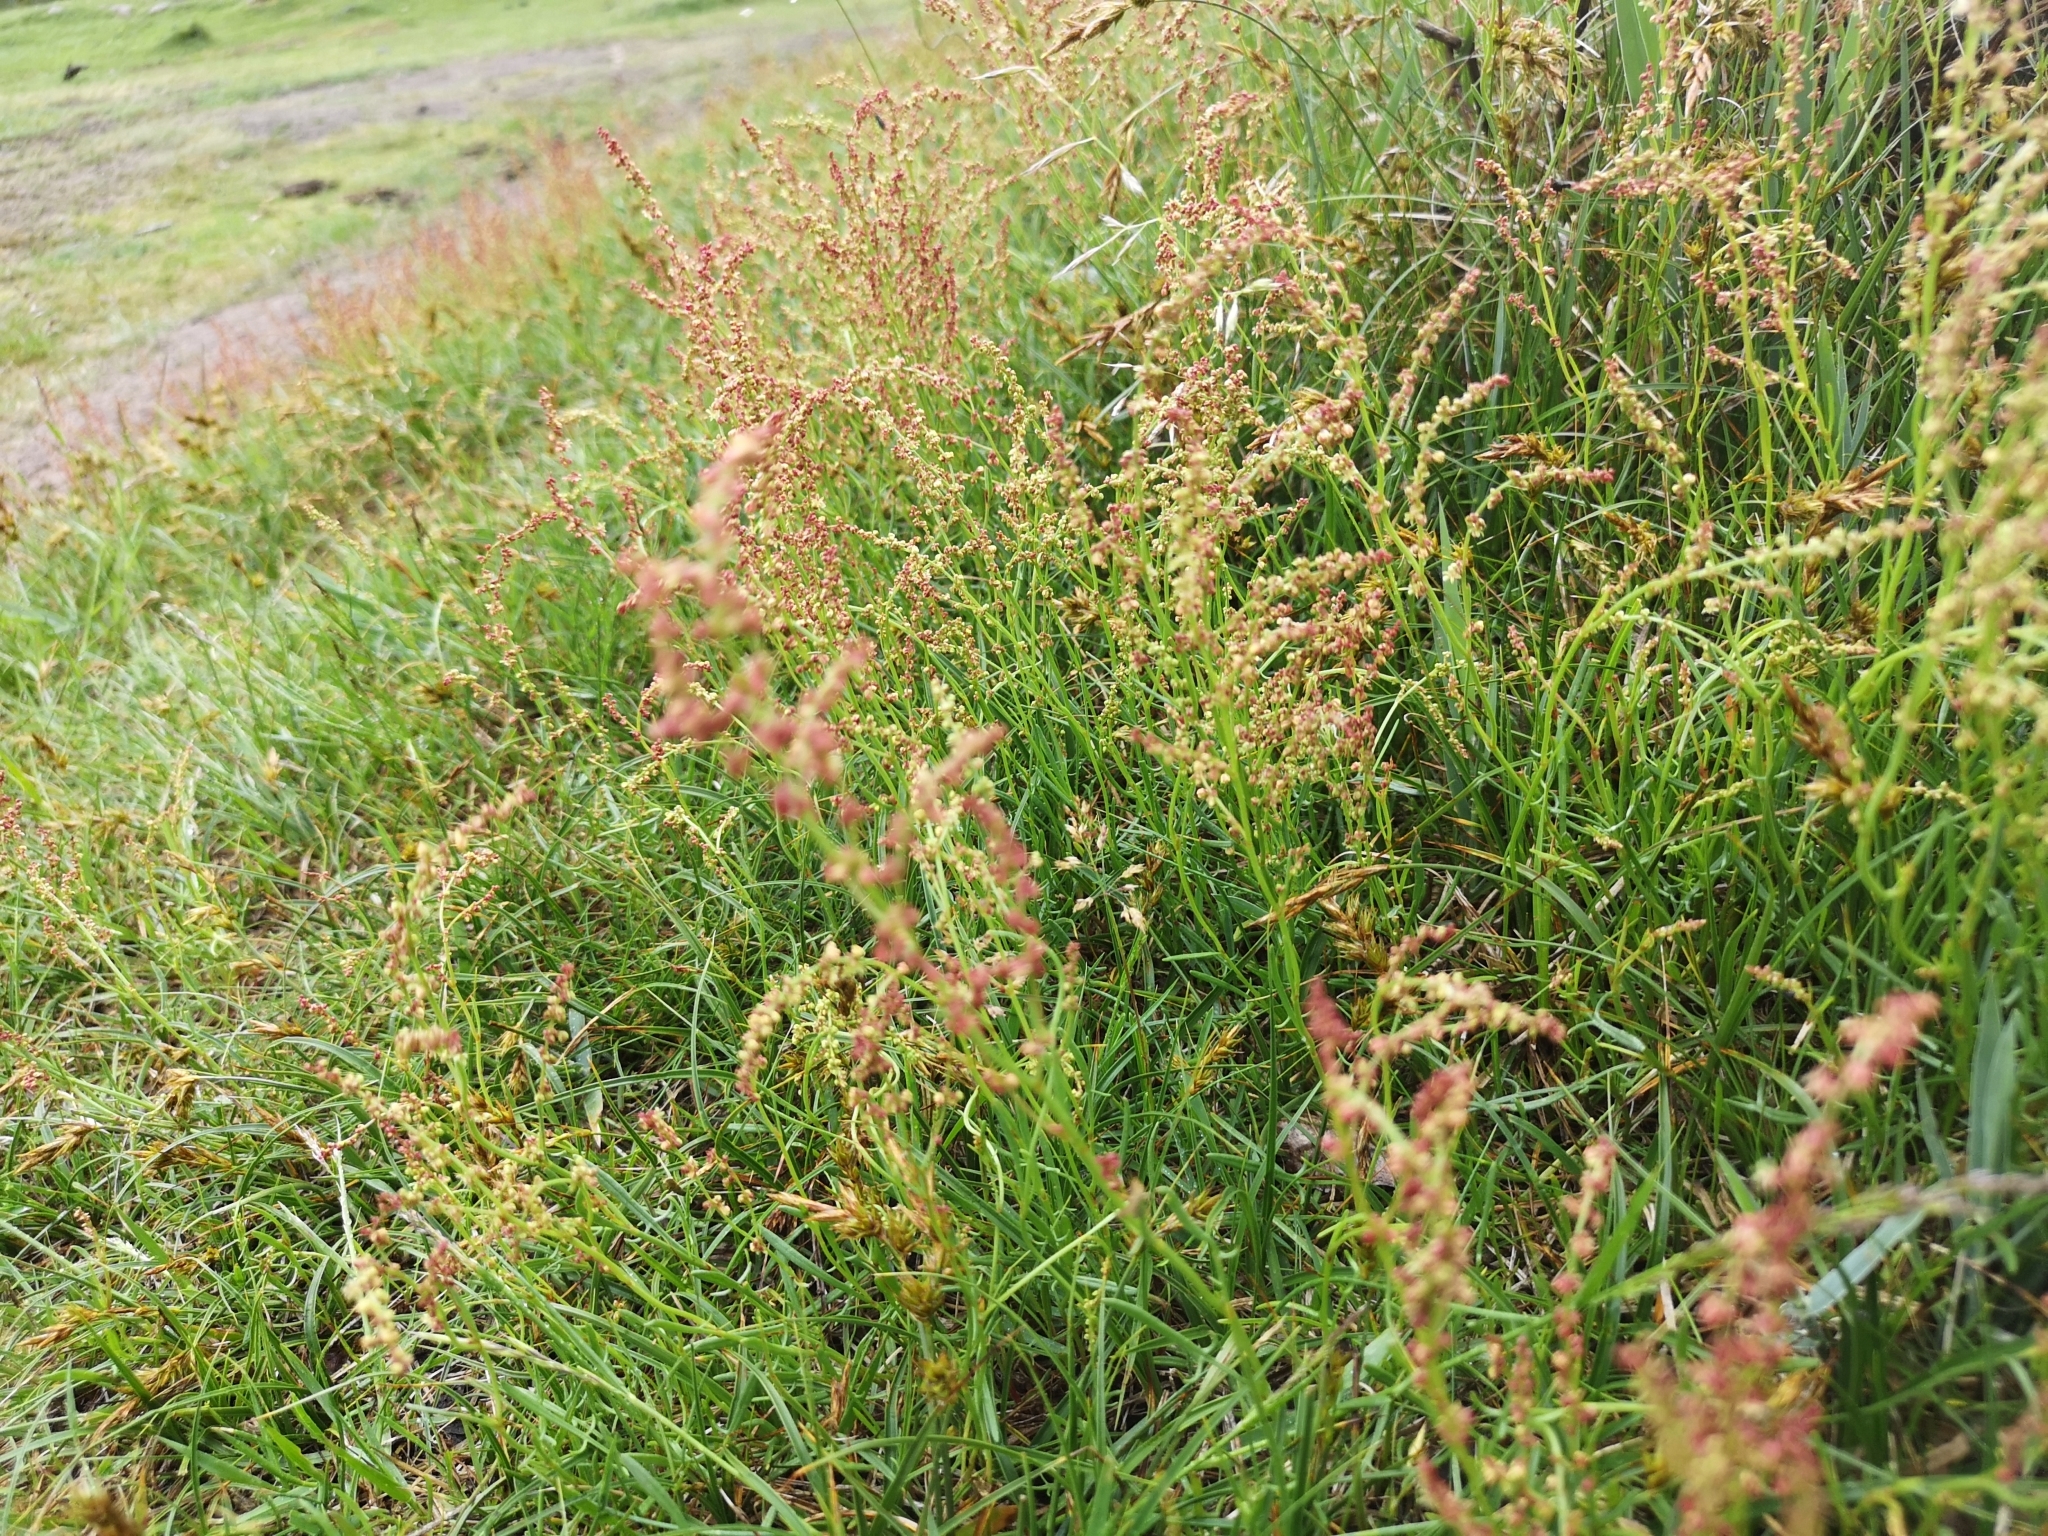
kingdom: Plantae
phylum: Tracheophyta
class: Magnoliopsida
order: Caryophyllales
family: Polygonaceae
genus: Rumex
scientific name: Rumex acetosella
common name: Common sheep sorrel
